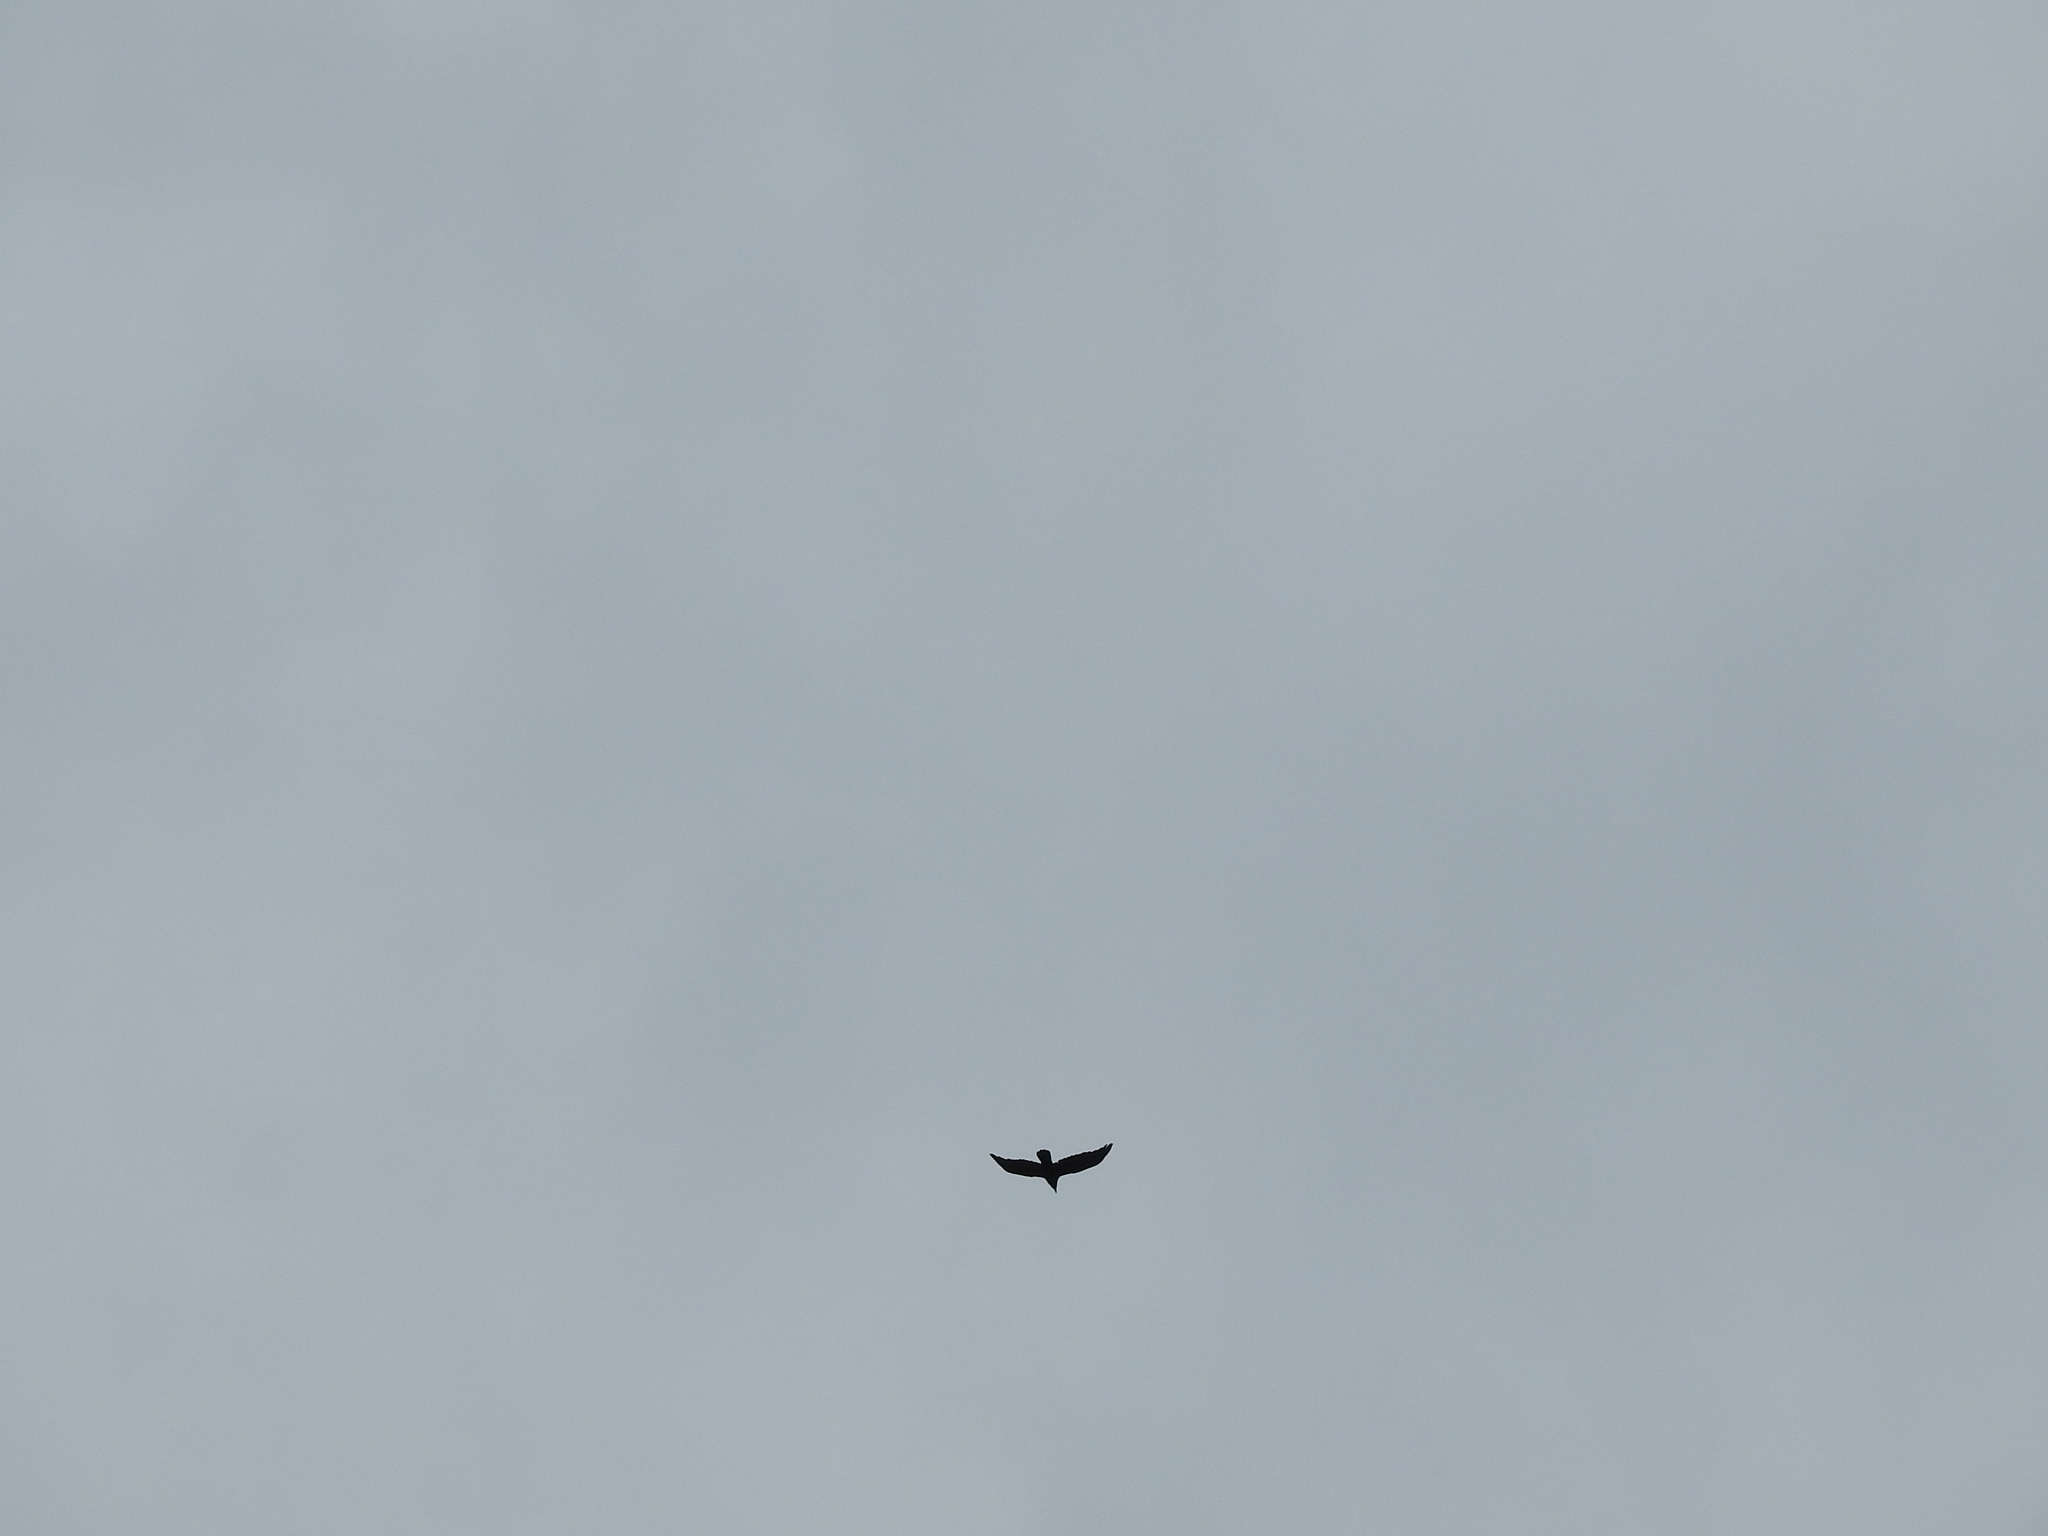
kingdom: Animalia
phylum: Chordata
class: Aves
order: Passeriformes
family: Corvidae
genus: Corvus
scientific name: Corvus corax
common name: Common raven
